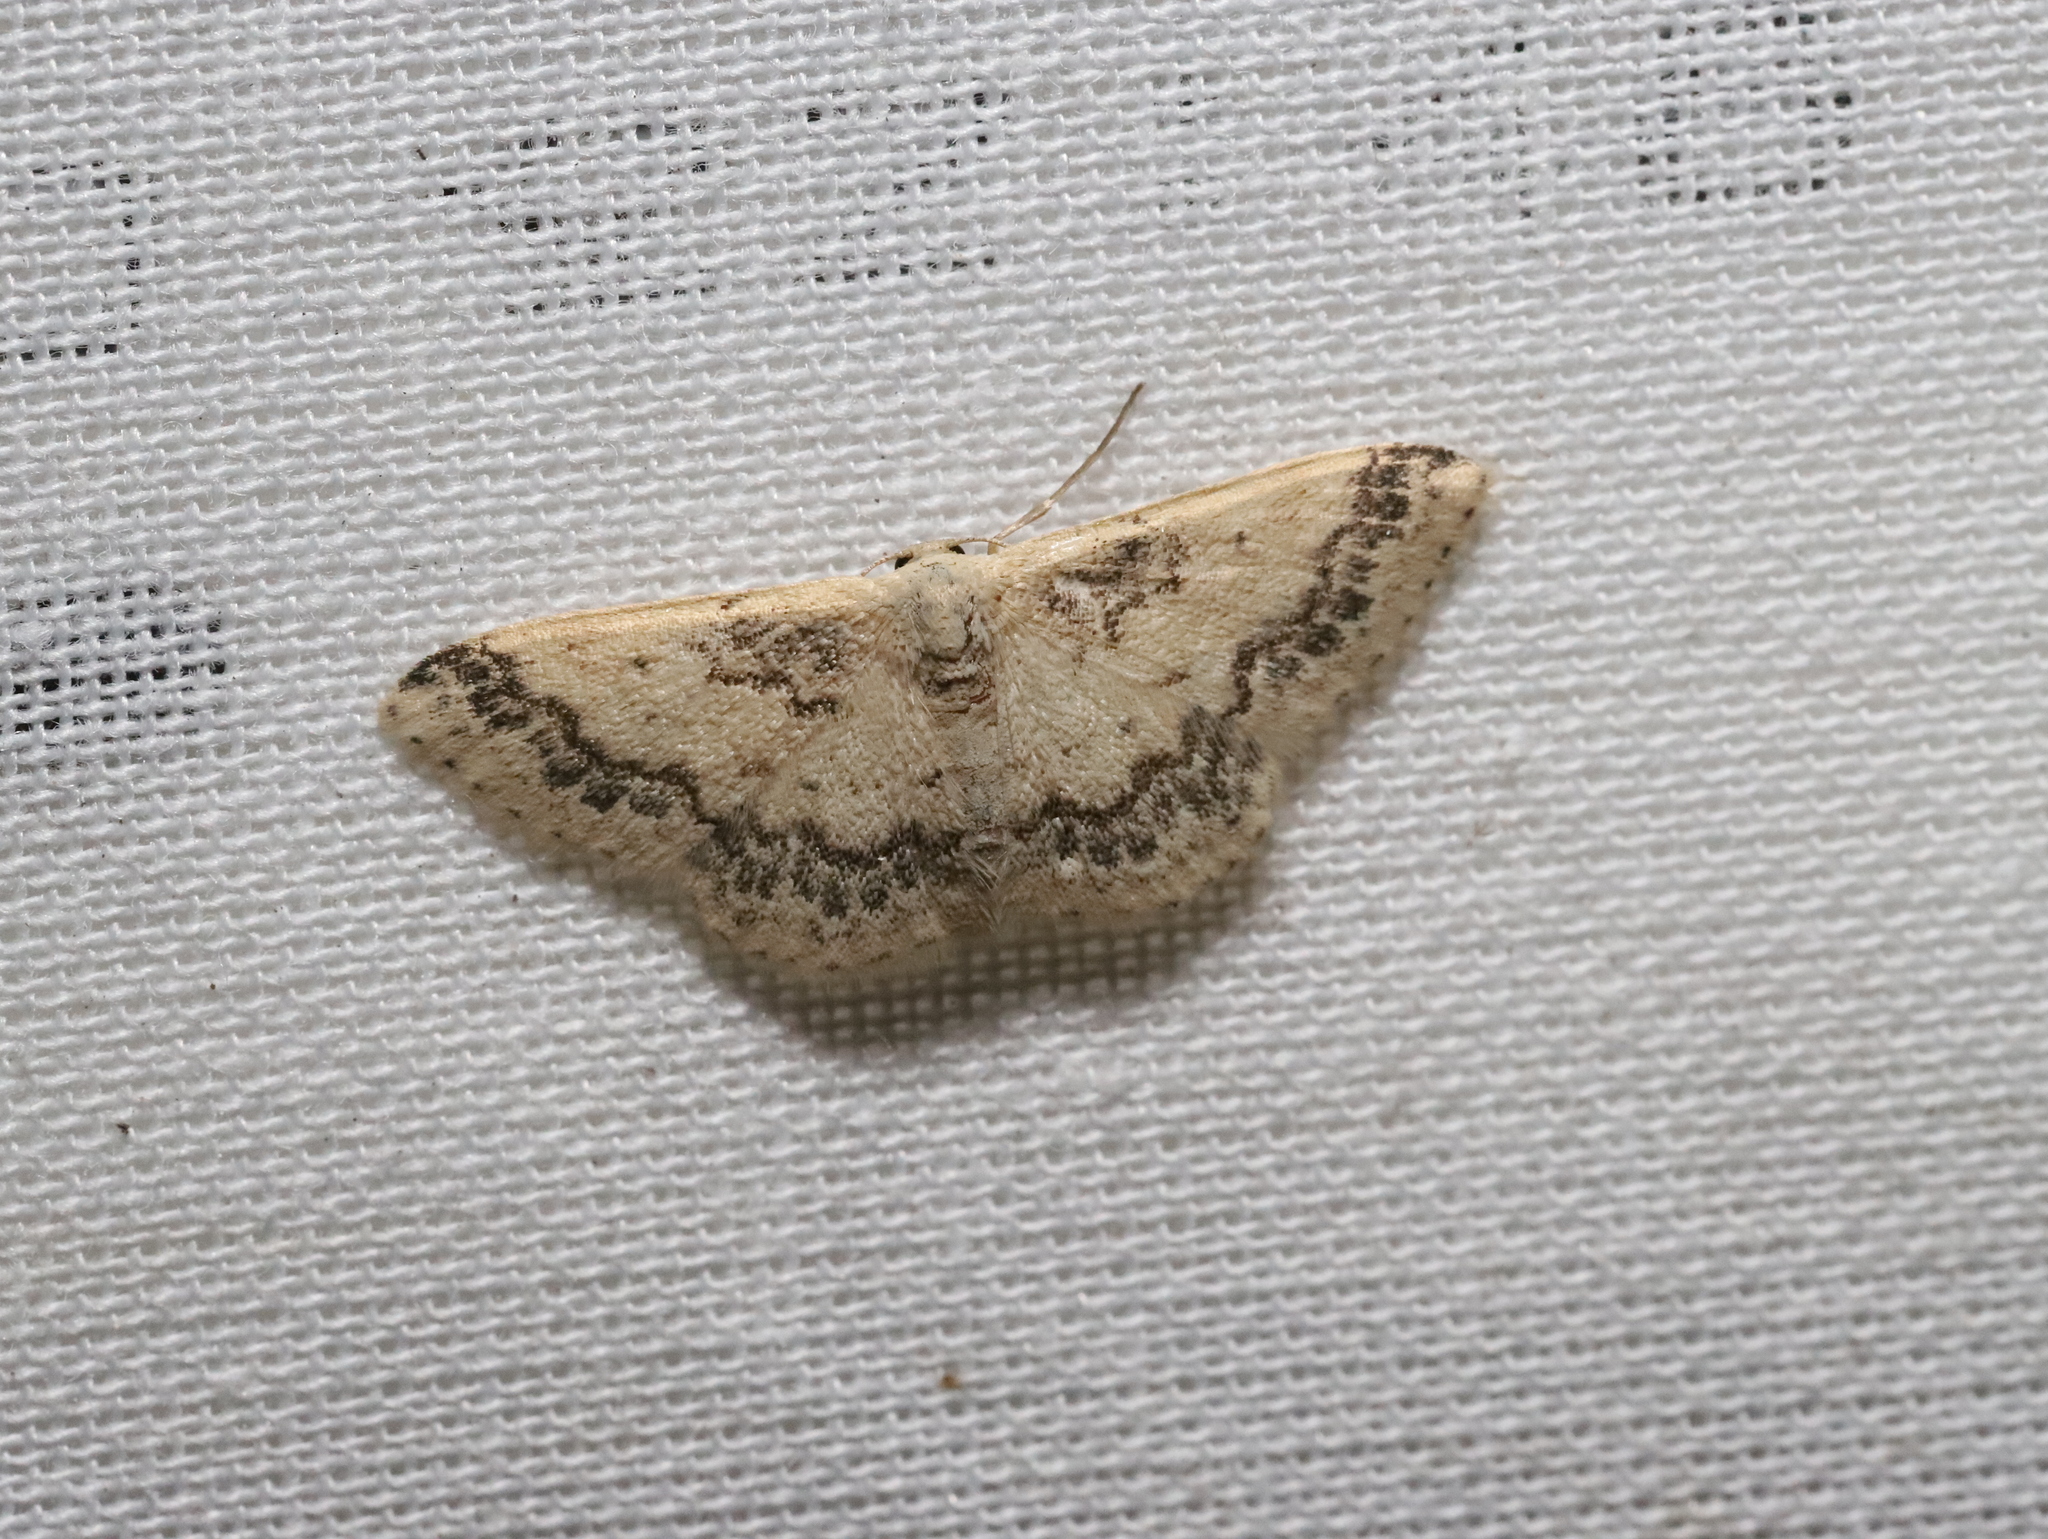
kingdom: Animalia
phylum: Arthropoda
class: Insecta
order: Lepidoptera
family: Geometridae
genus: Idaea
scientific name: Idaea pseliota
